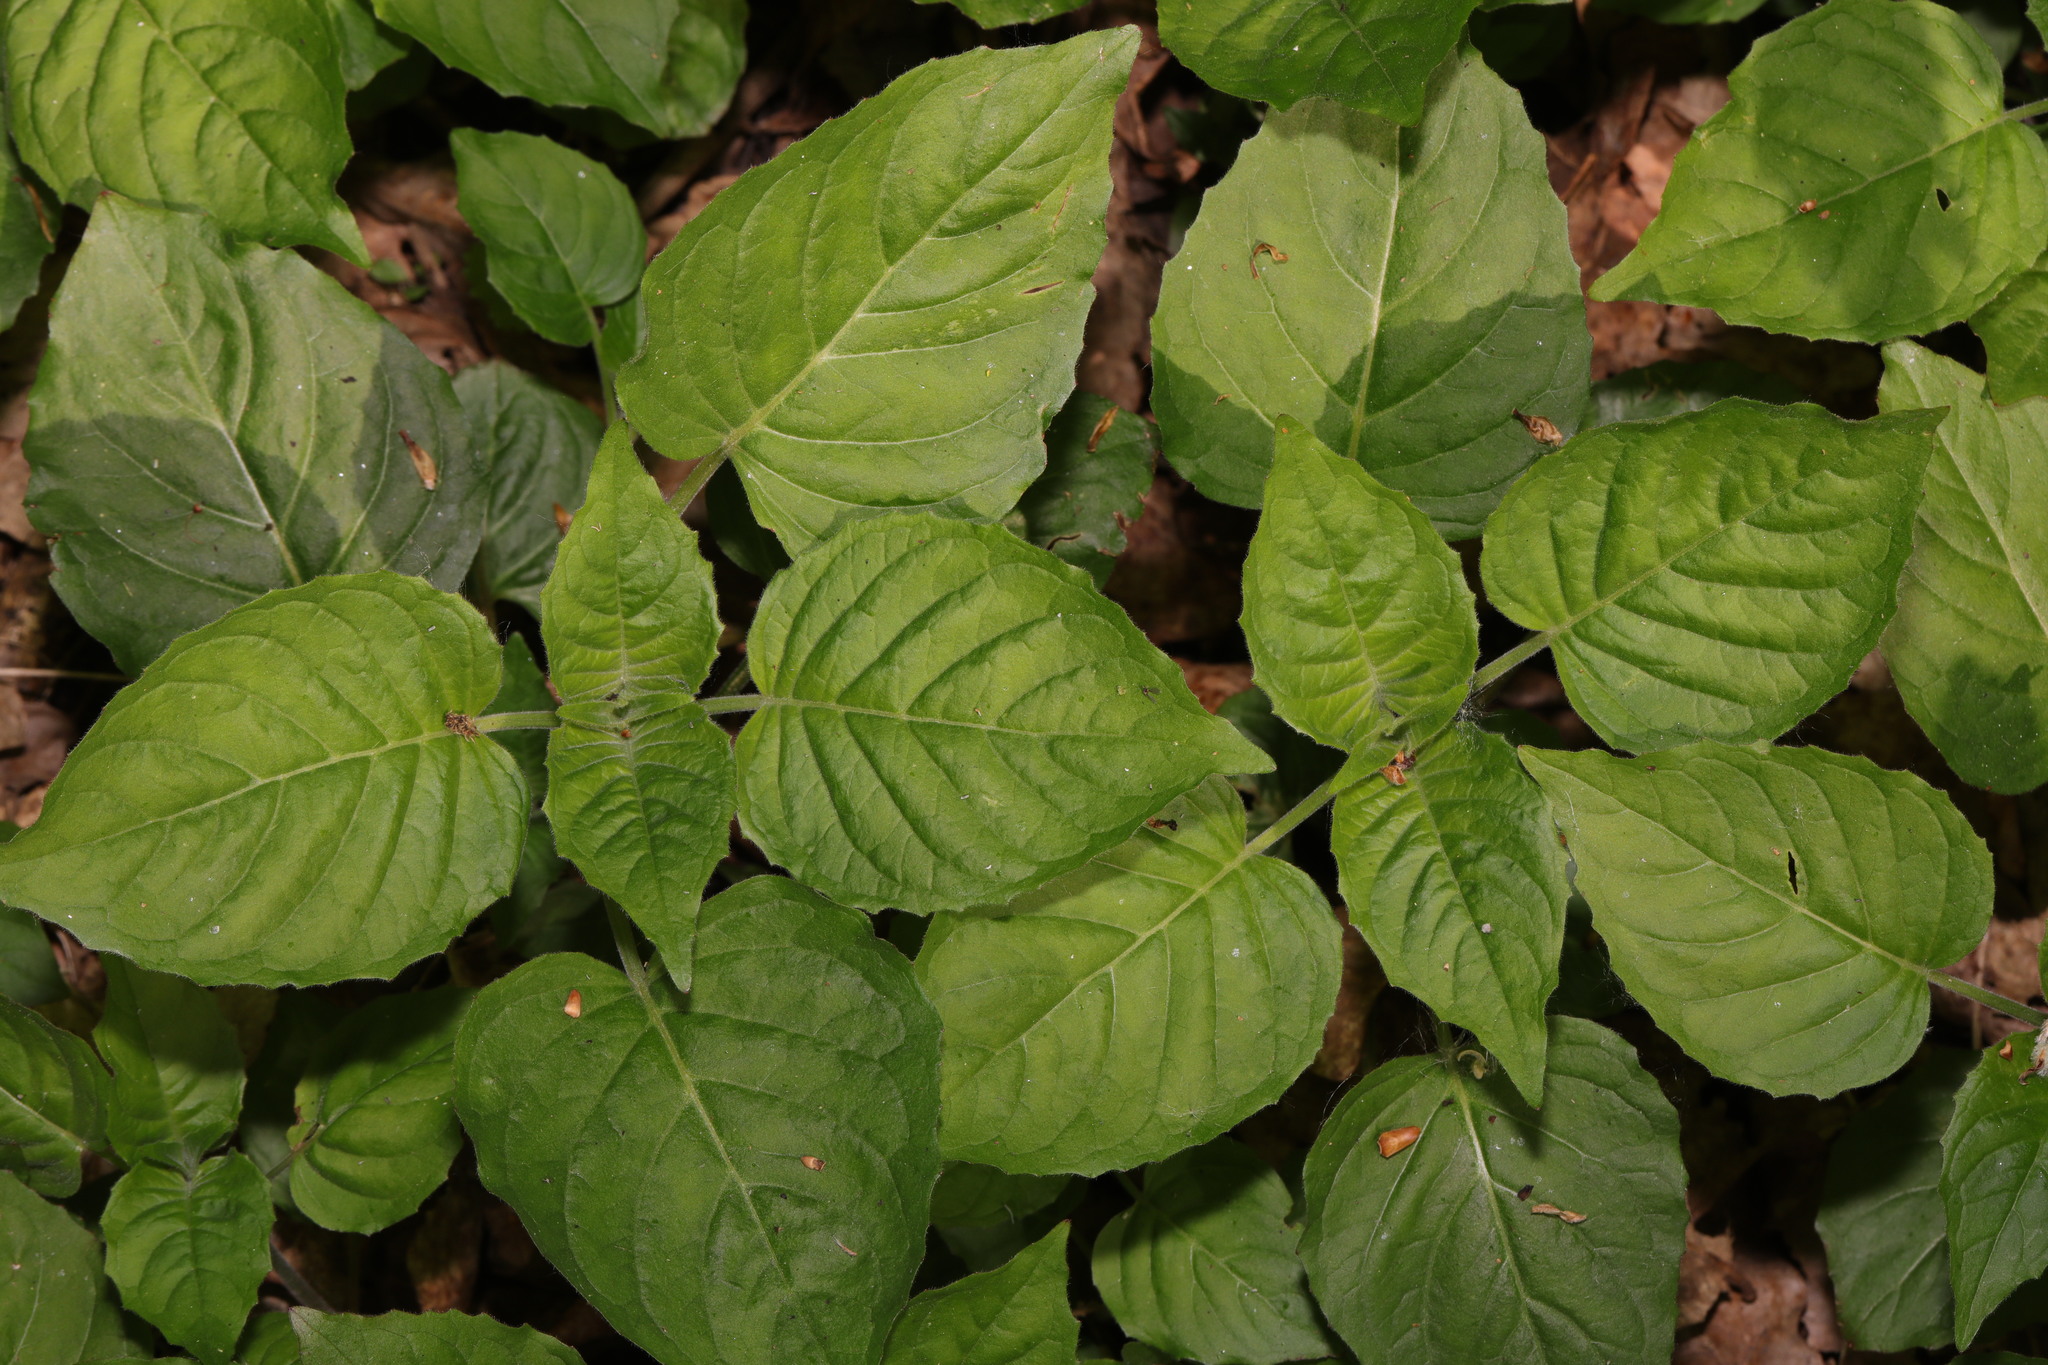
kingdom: Plantae
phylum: Tracheophyta
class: Magnoliopsida
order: Myrtales
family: Onagraceae
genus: Circaea
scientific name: Circaea lutetiana
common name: Enchanter's-nightshade
